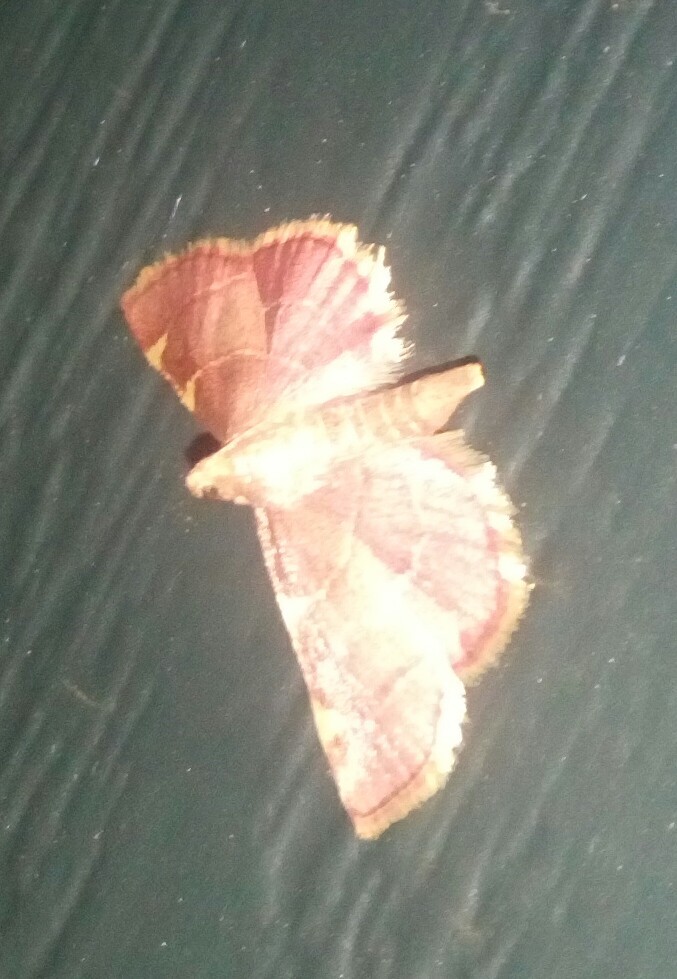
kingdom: Animalia
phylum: Arthropoda
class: Insecta
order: Lepidoptera
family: Pyralidae
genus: Hypsopygia
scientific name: Hypsopygia olinalis
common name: Yellow-fringed dolichomia moth
